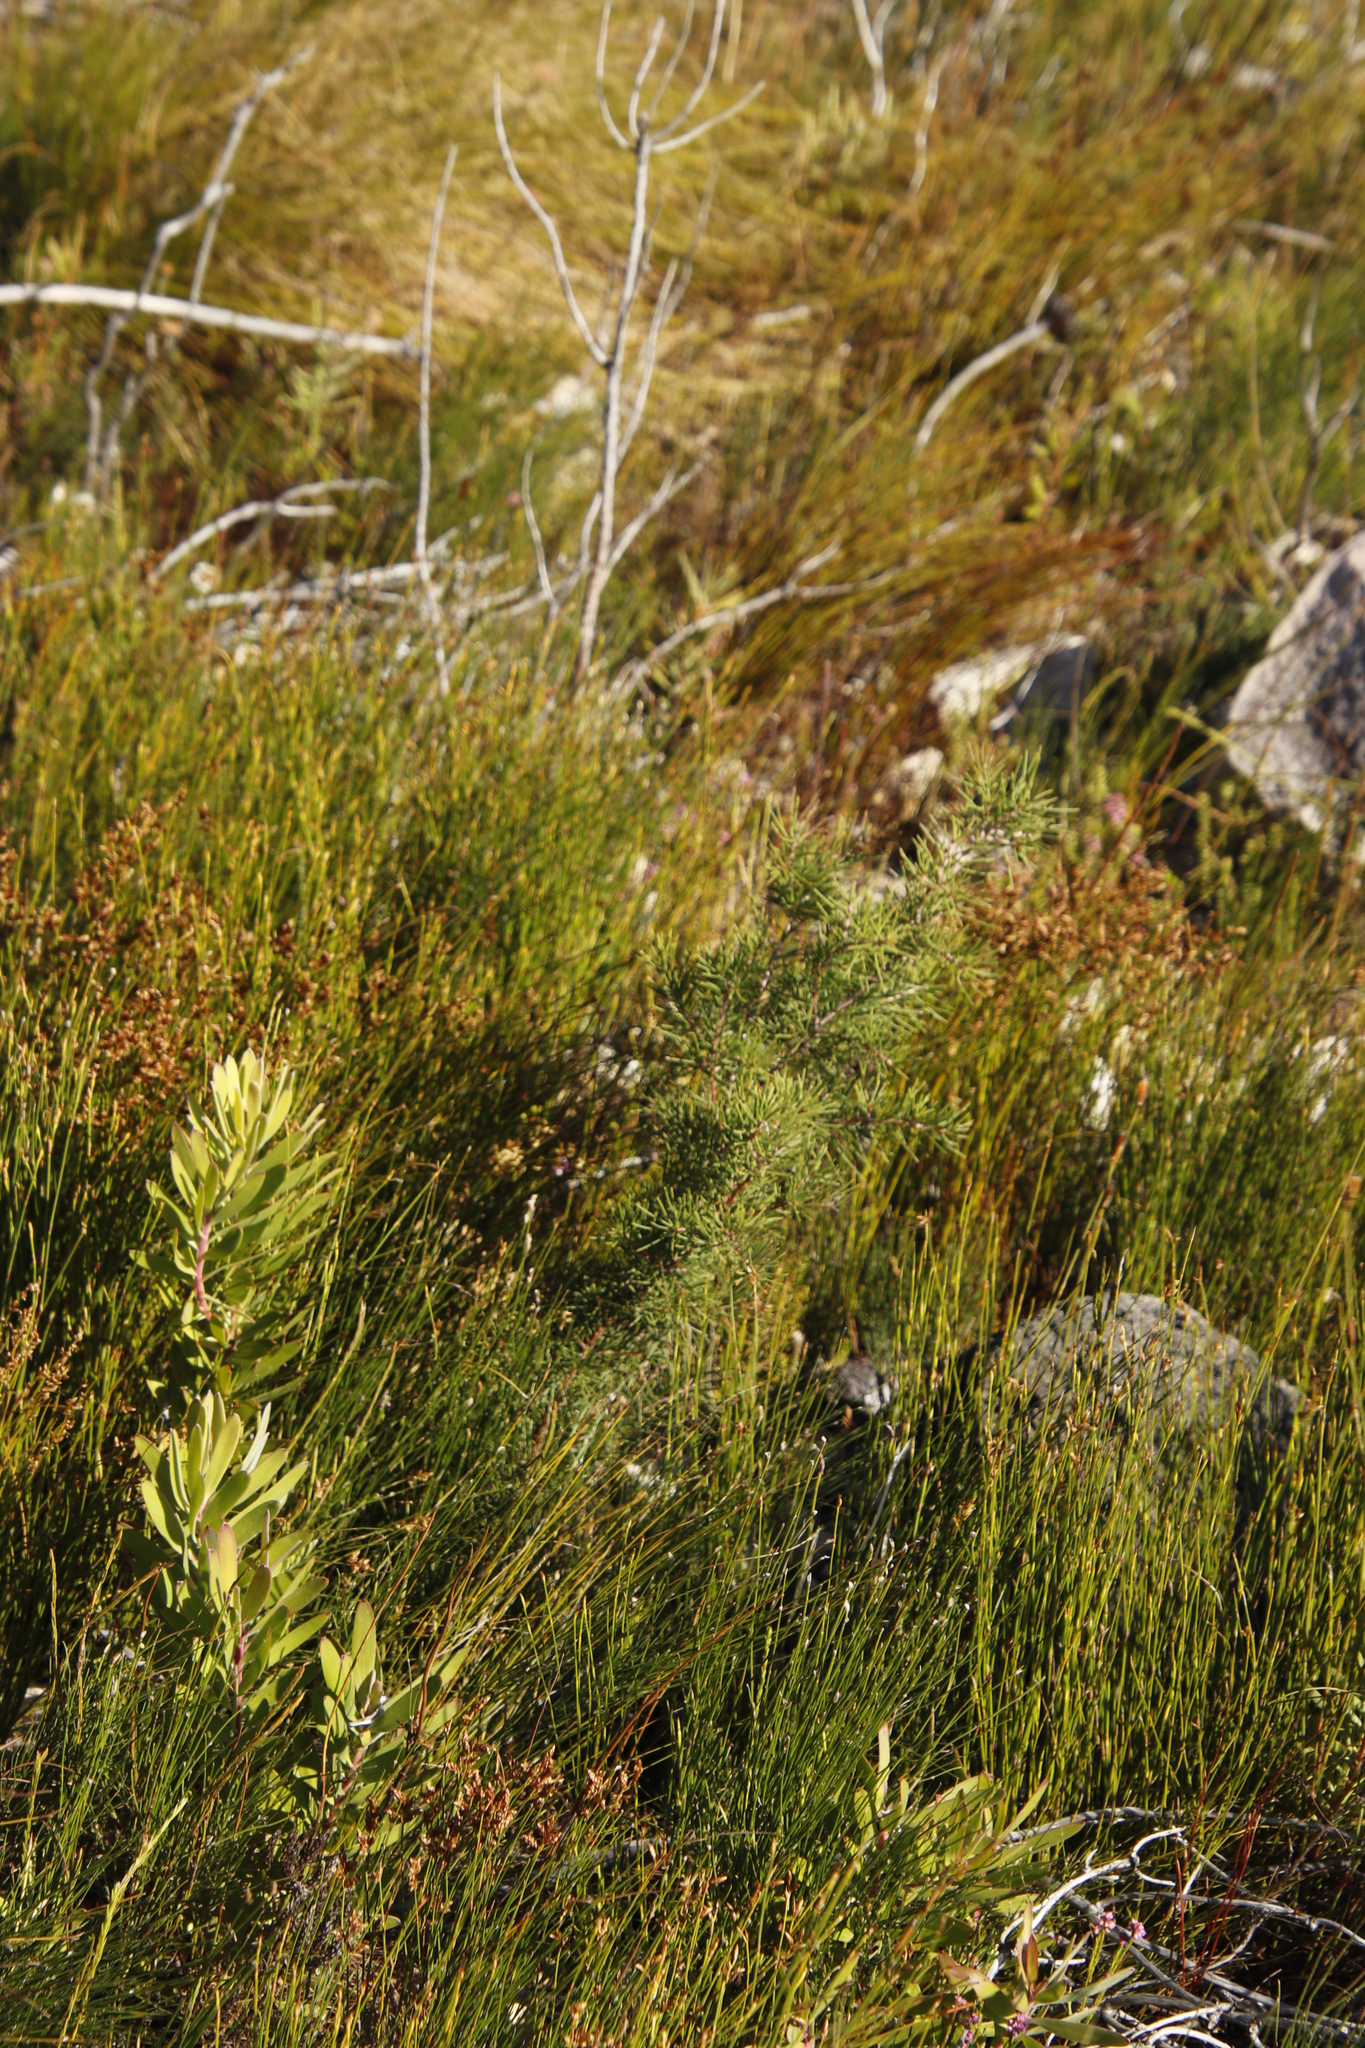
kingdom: Plantae
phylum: Tracheophyta
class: Magnoliopsida
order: Proteales
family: Proteaceae
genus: Hakea
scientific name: Hakea sericea
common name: Needle bush
